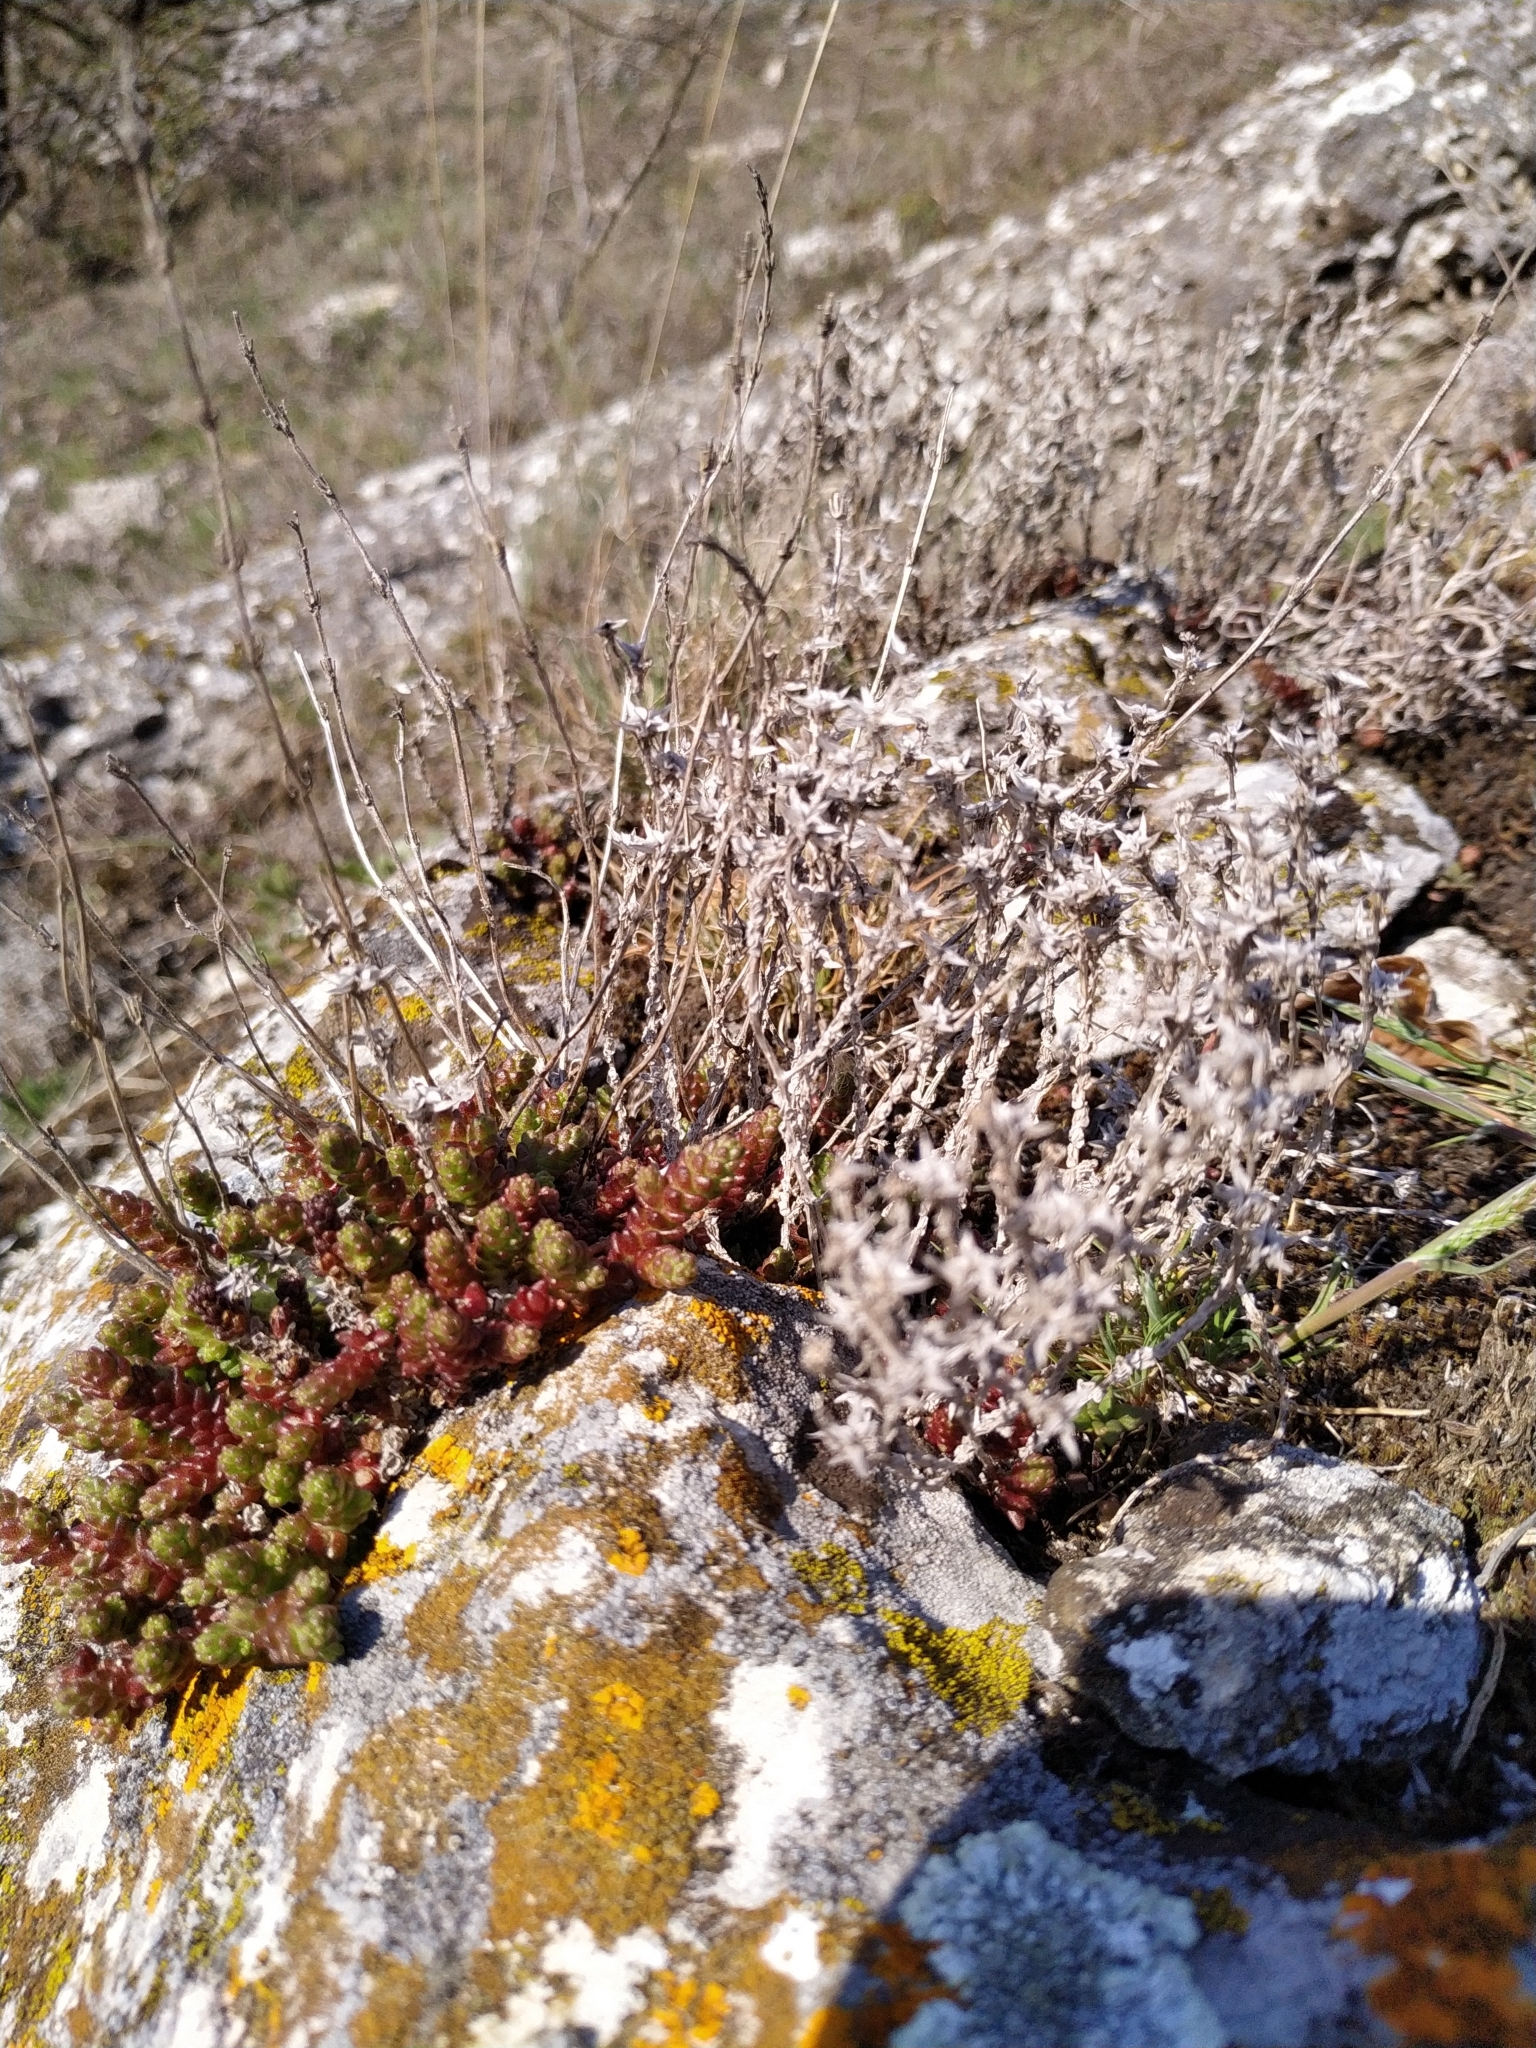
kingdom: Plantae
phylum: Tracheophyta
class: Magnoliopsida
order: Saxifragales
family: Crassulaceae
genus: Sedum
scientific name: Sedum acre
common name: Biting stonecrop
